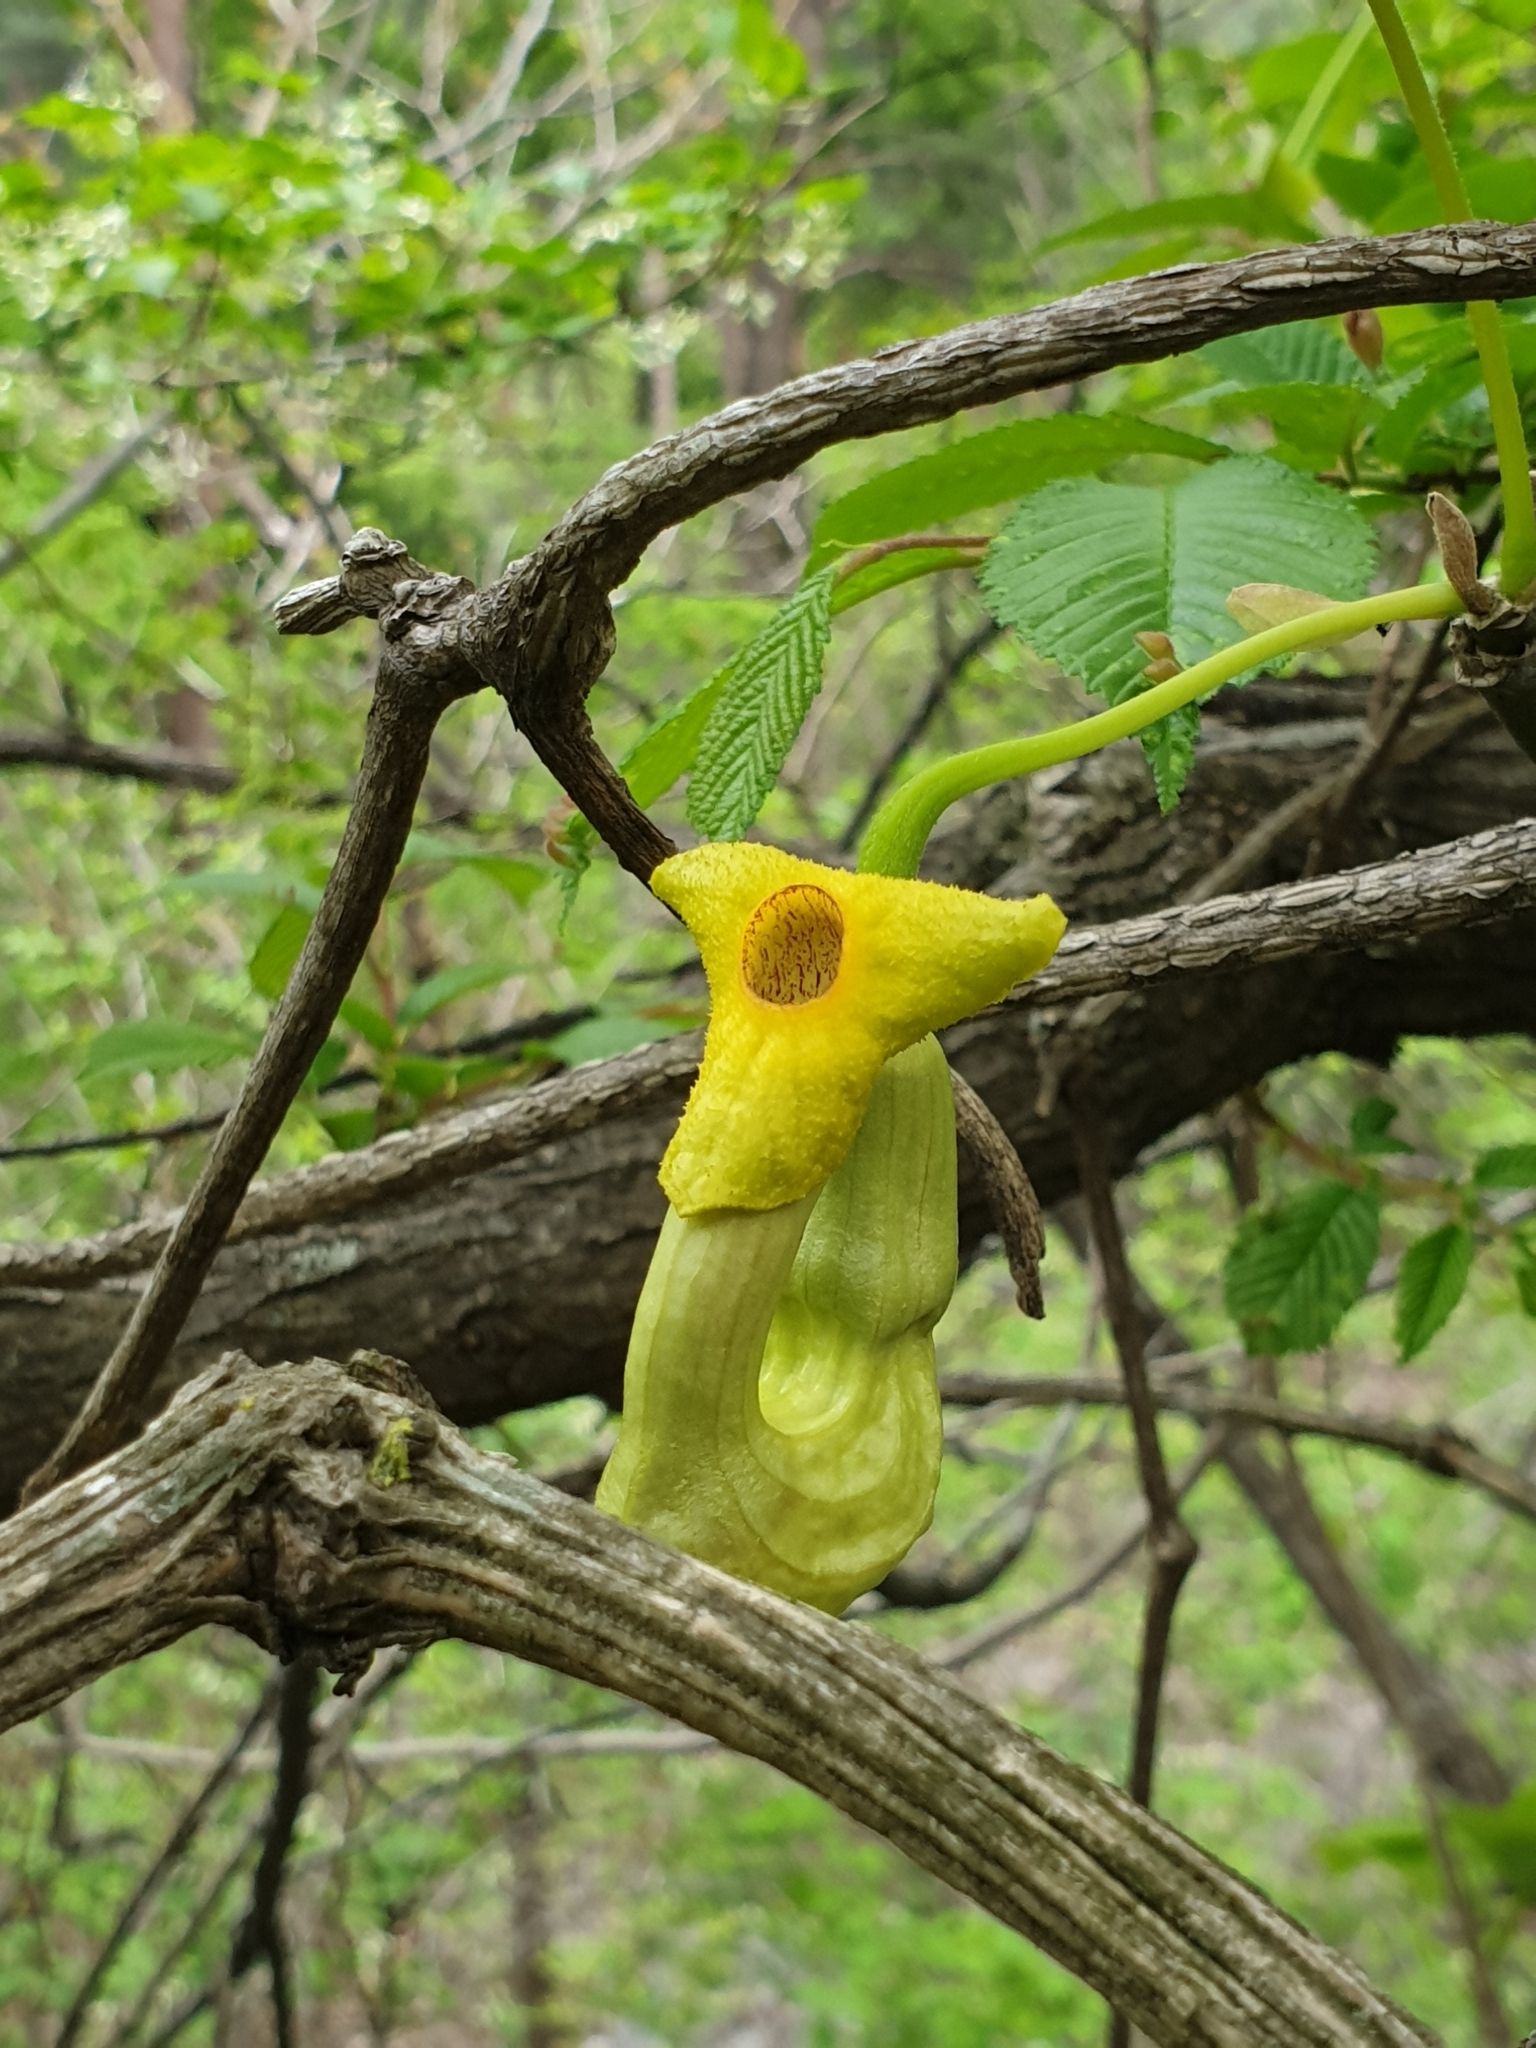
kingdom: Plantae
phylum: Tracheophyta
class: Magnoliopsida
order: Piperales
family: Aristolochiaceae
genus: Aristolochia
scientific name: Aristolochia manshuriensis
